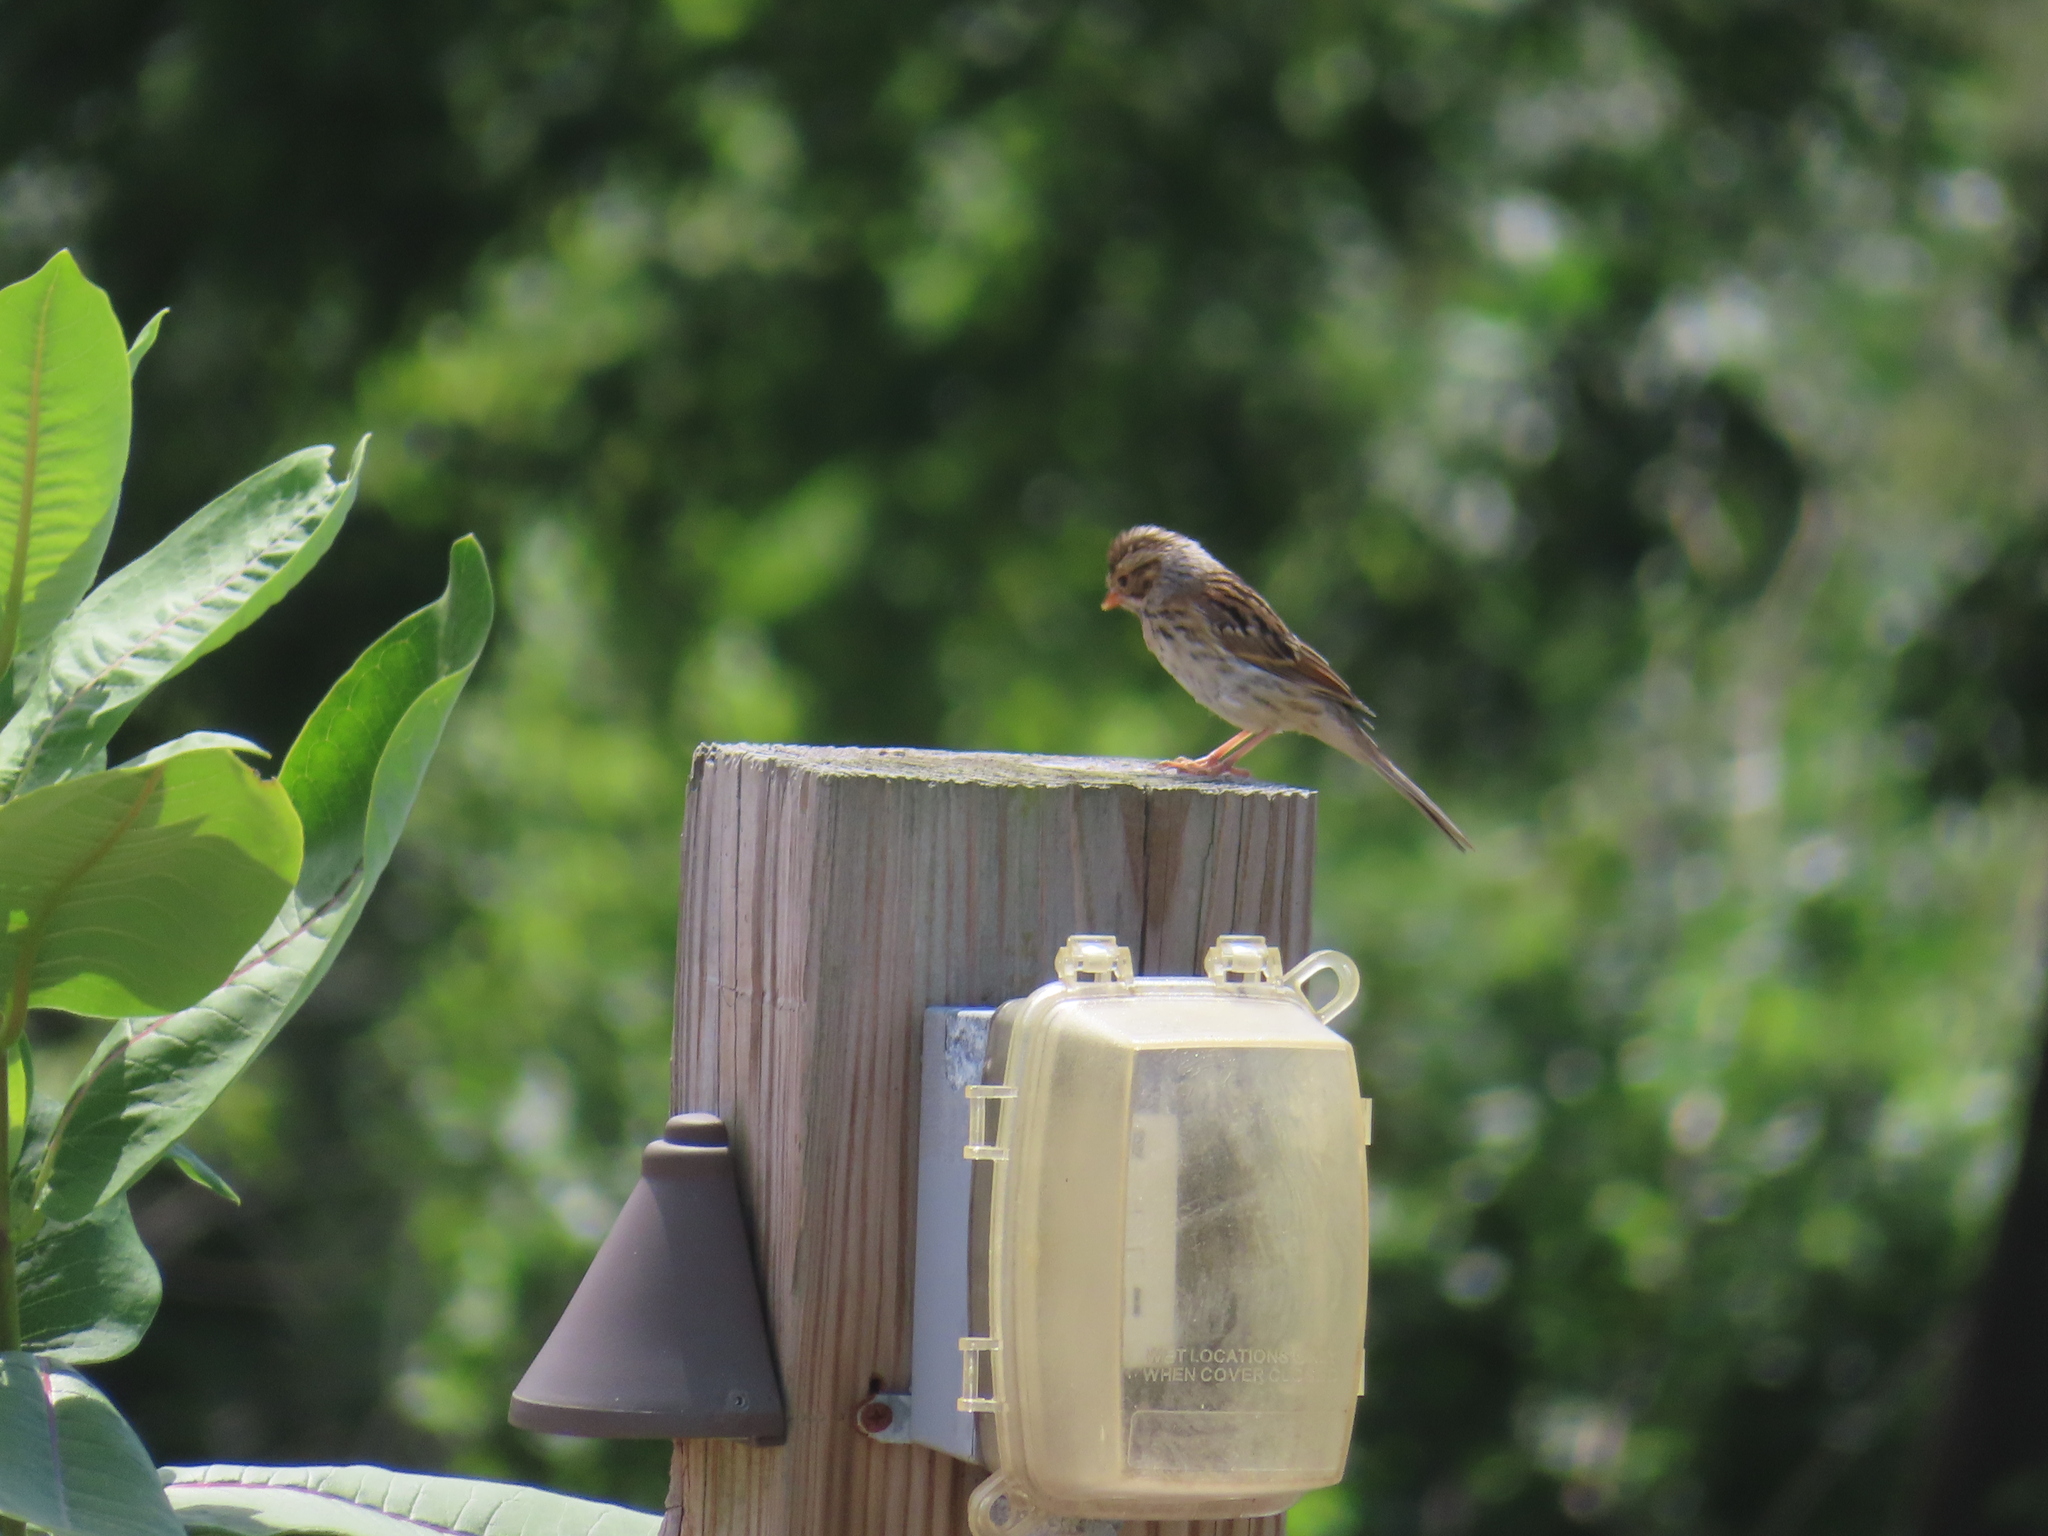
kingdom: Animalia
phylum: Chordata
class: Aves
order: Passeriformes
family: Passerellidae
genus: Spizella
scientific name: Spizella pallida
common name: Clay-colored sparrow
